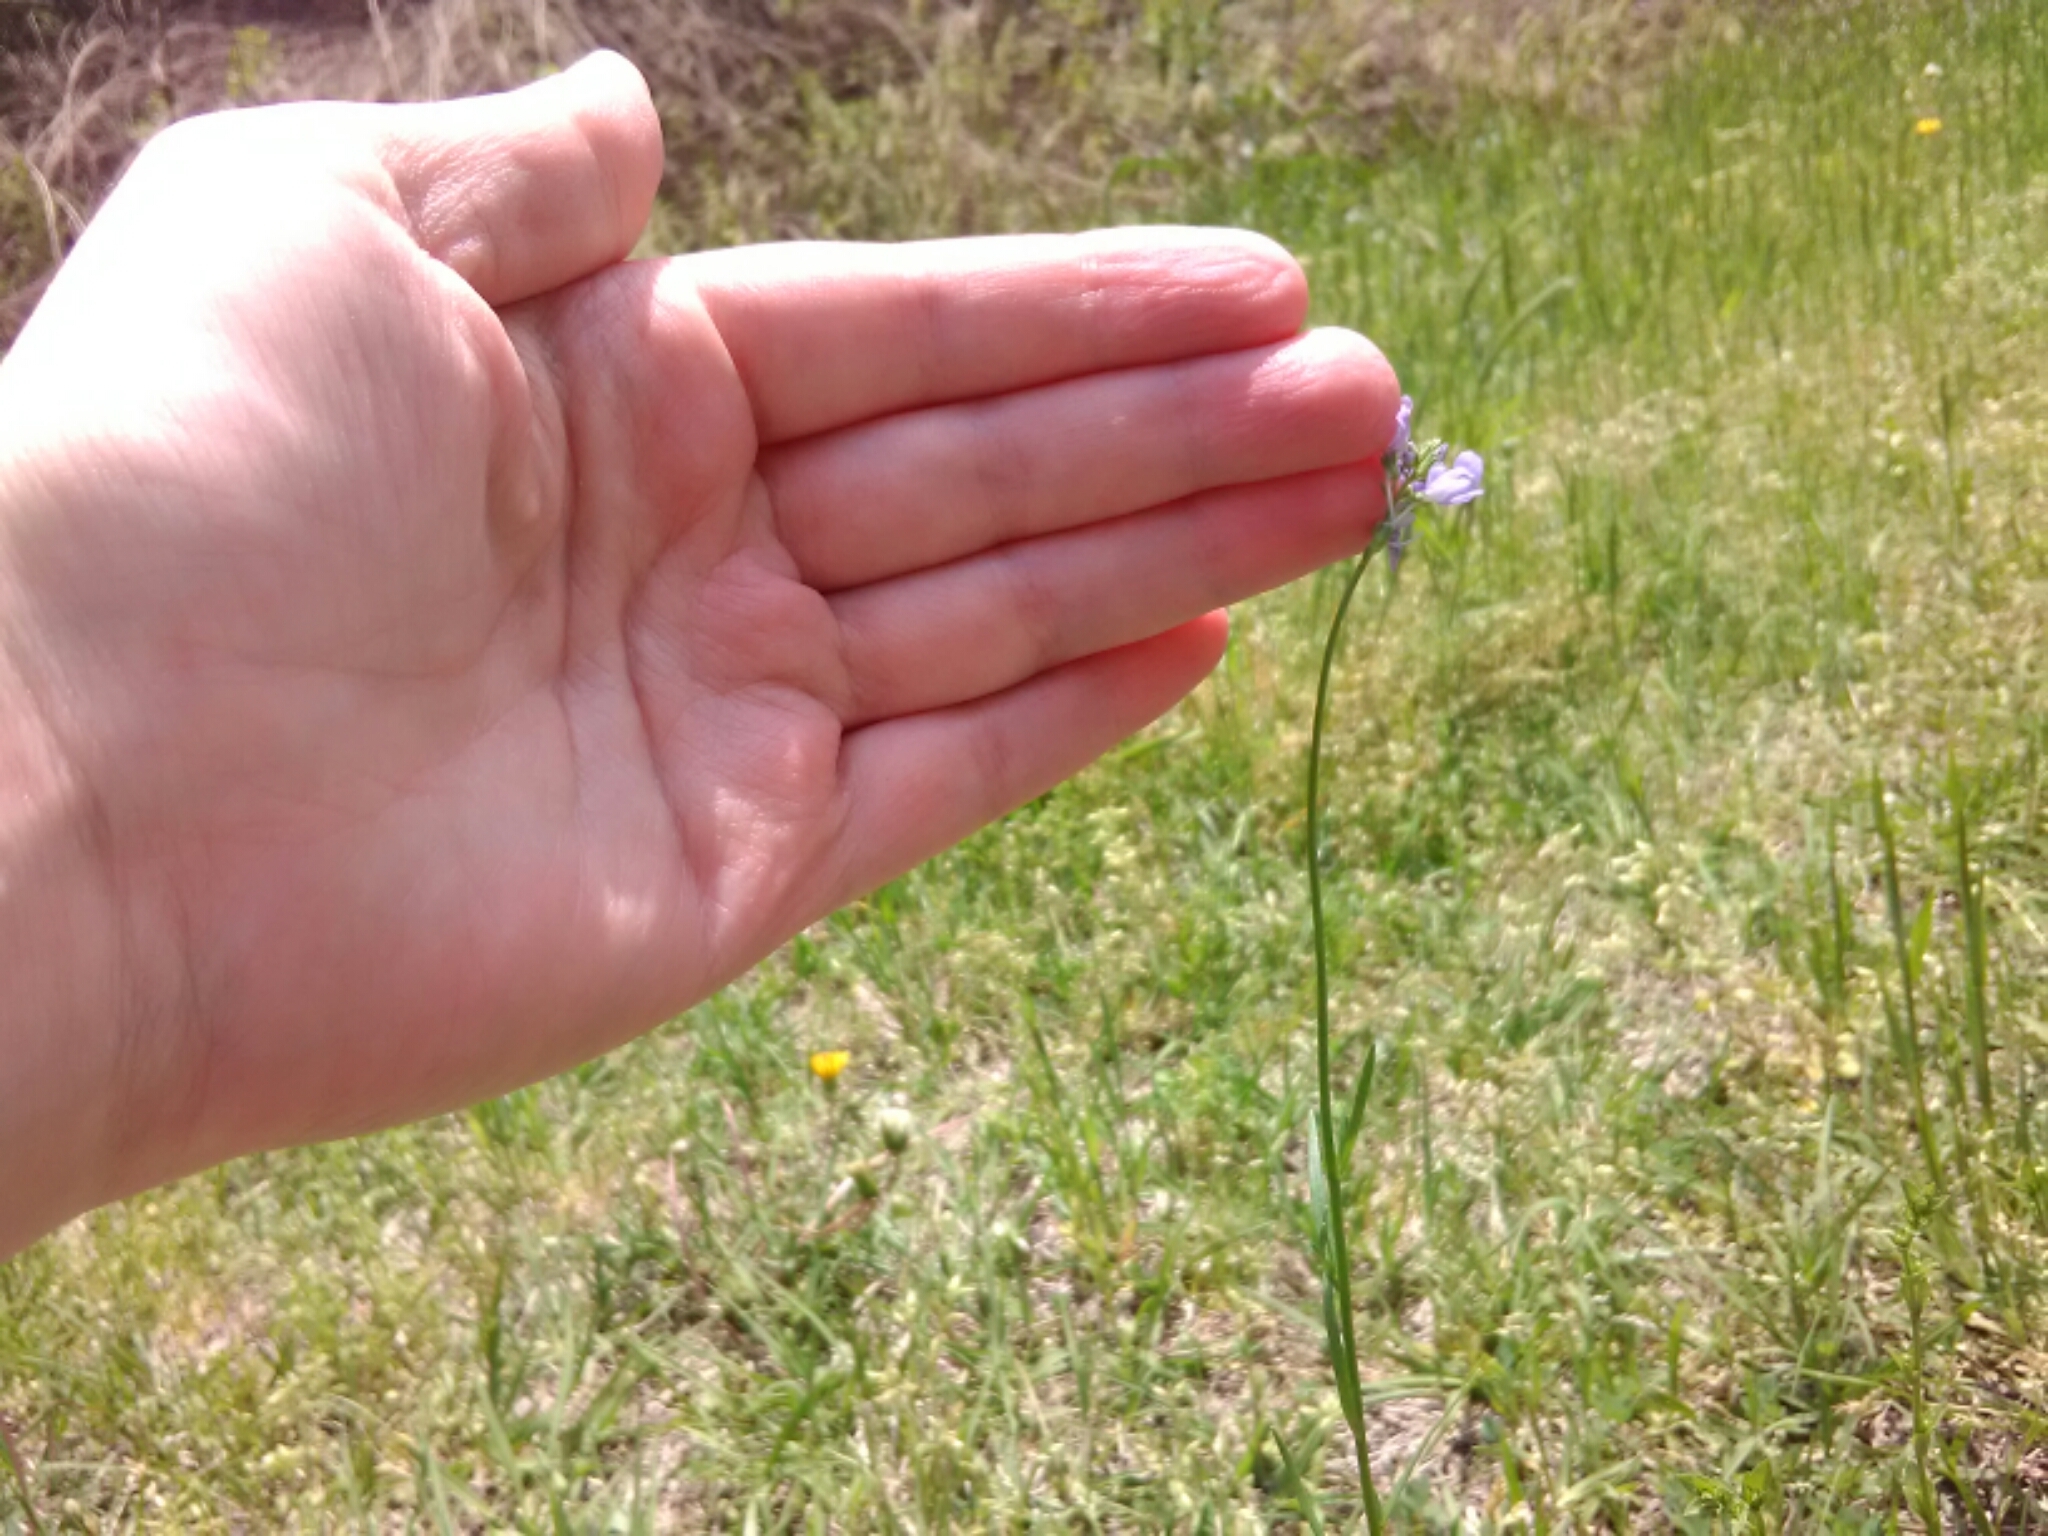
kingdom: Plantae
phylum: Tracheophyta
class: Magnoliopsida
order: Lamiales
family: Plantaginaceae
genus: Nuttallanthus
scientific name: Nuttallanthus canadensis
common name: Blue toadflax
